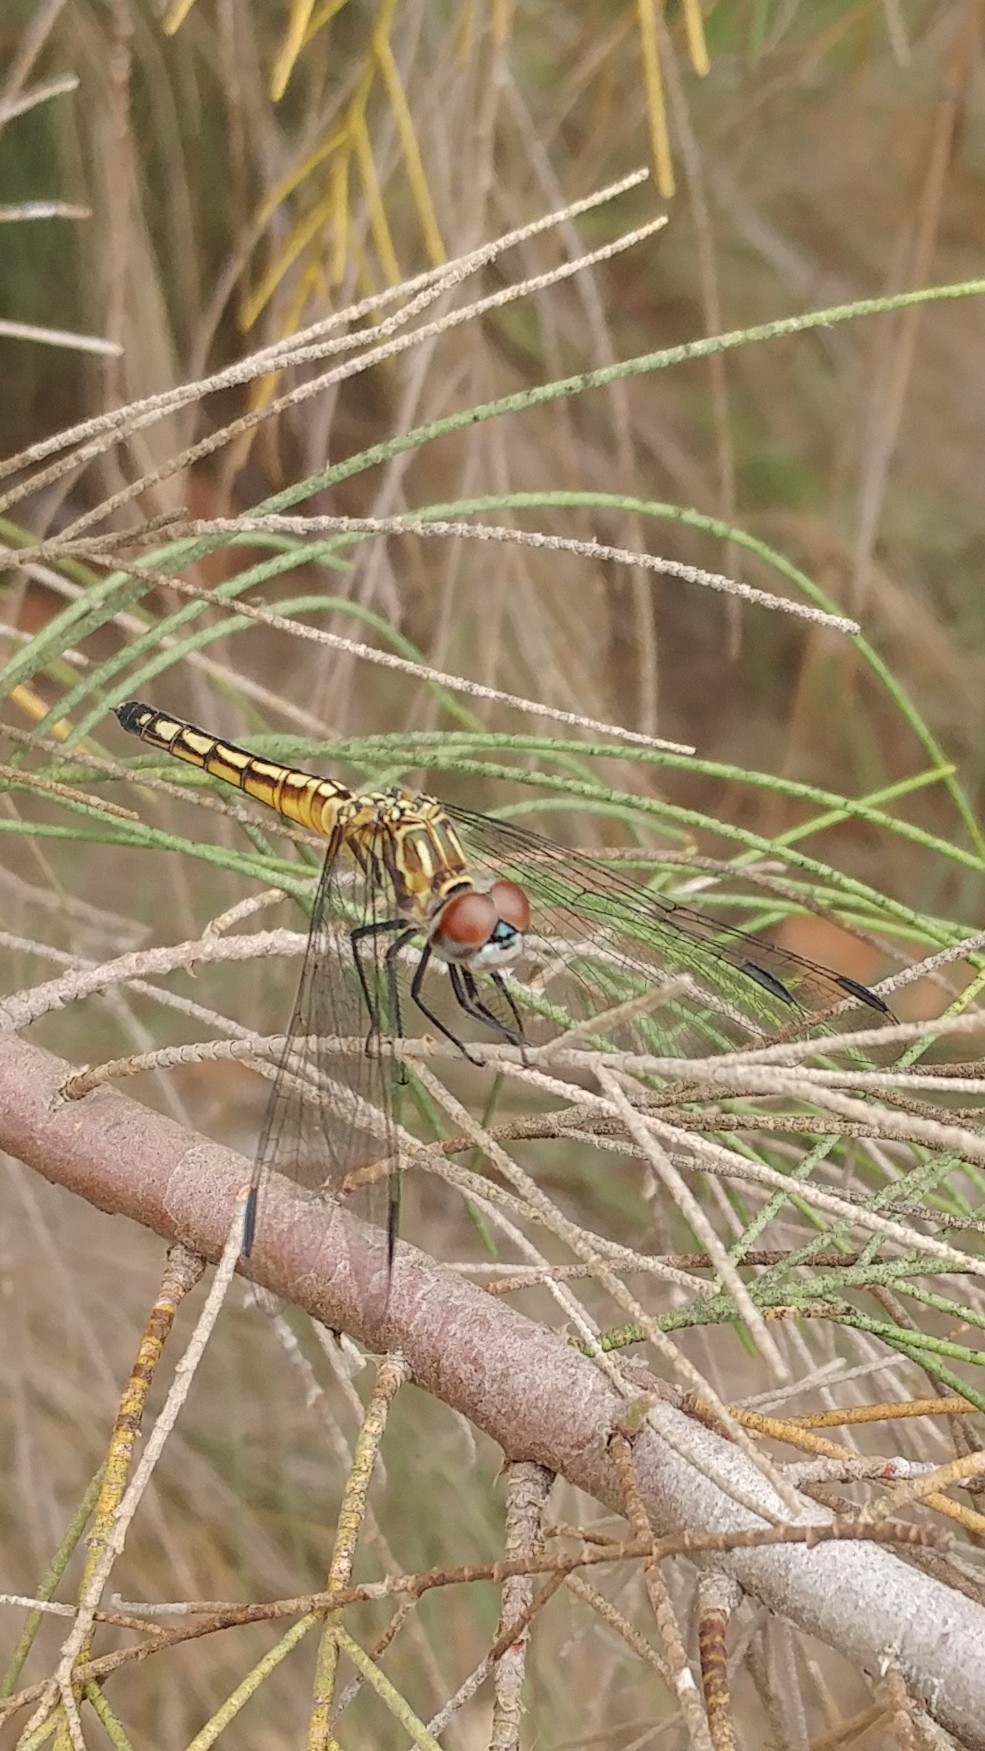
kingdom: Animalia
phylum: Arthropoda
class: Insecta
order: Odonata
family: Libellulidae
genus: Pachydiplax
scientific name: Pachydiplax longipennis
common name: Blue dasher
